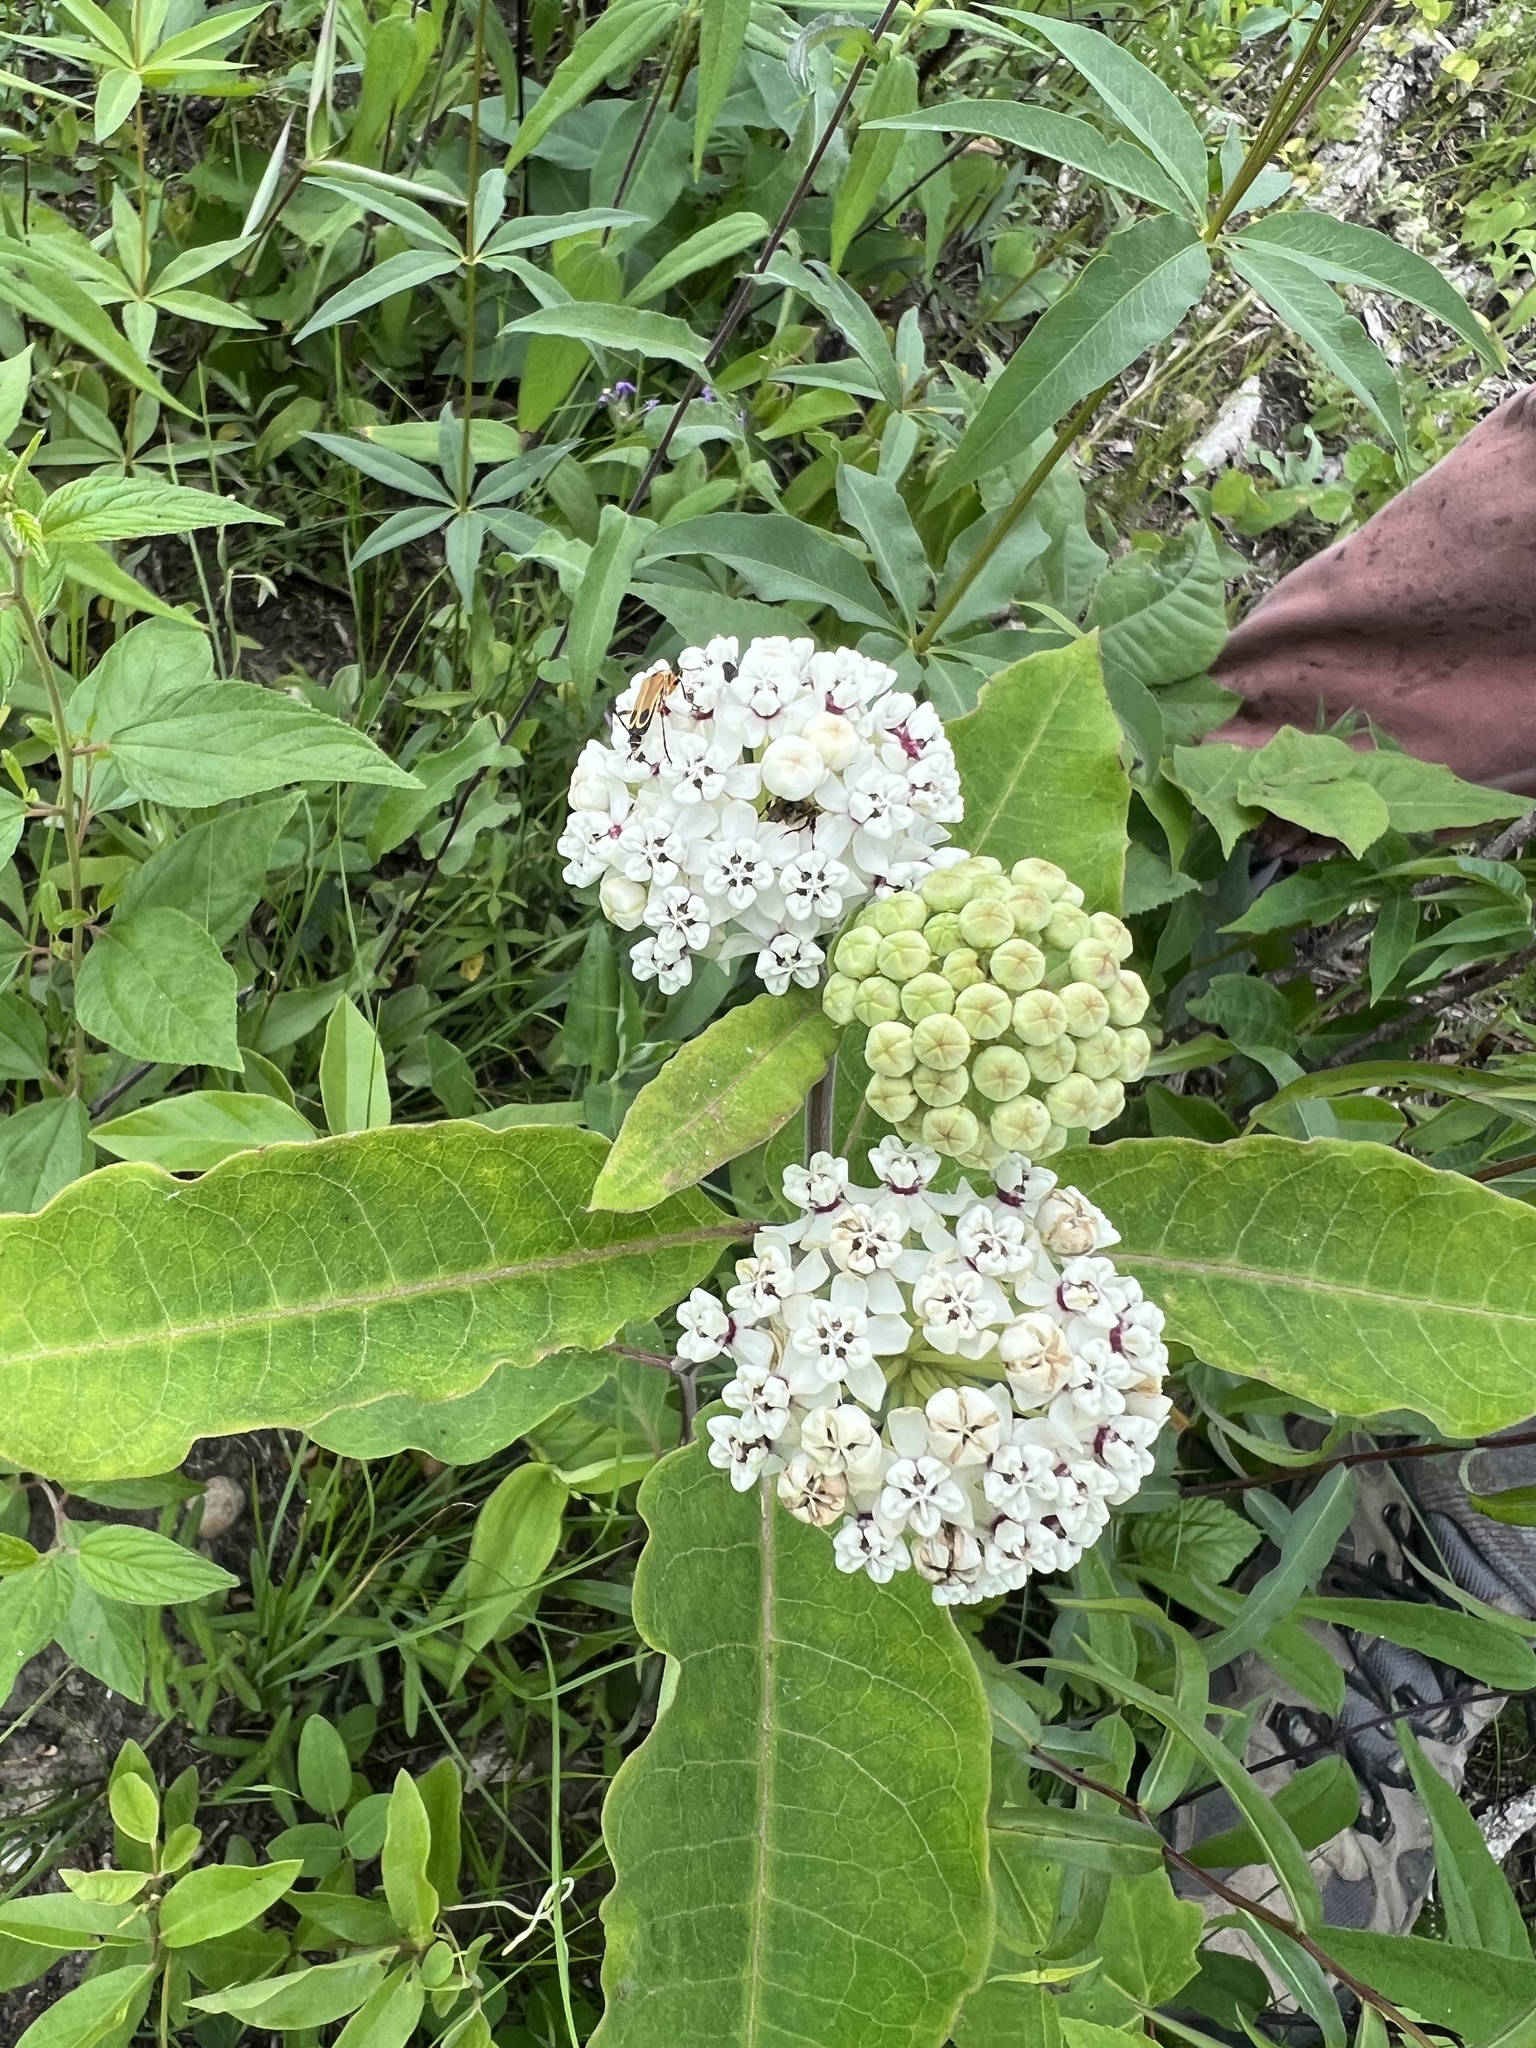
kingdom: Plantae
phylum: Tracheophyta
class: Magnoliopsida
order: Gentianales
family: Apocynaceae
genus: Asclepias
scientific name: Asclepias variegata
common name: Variegated milkweed
